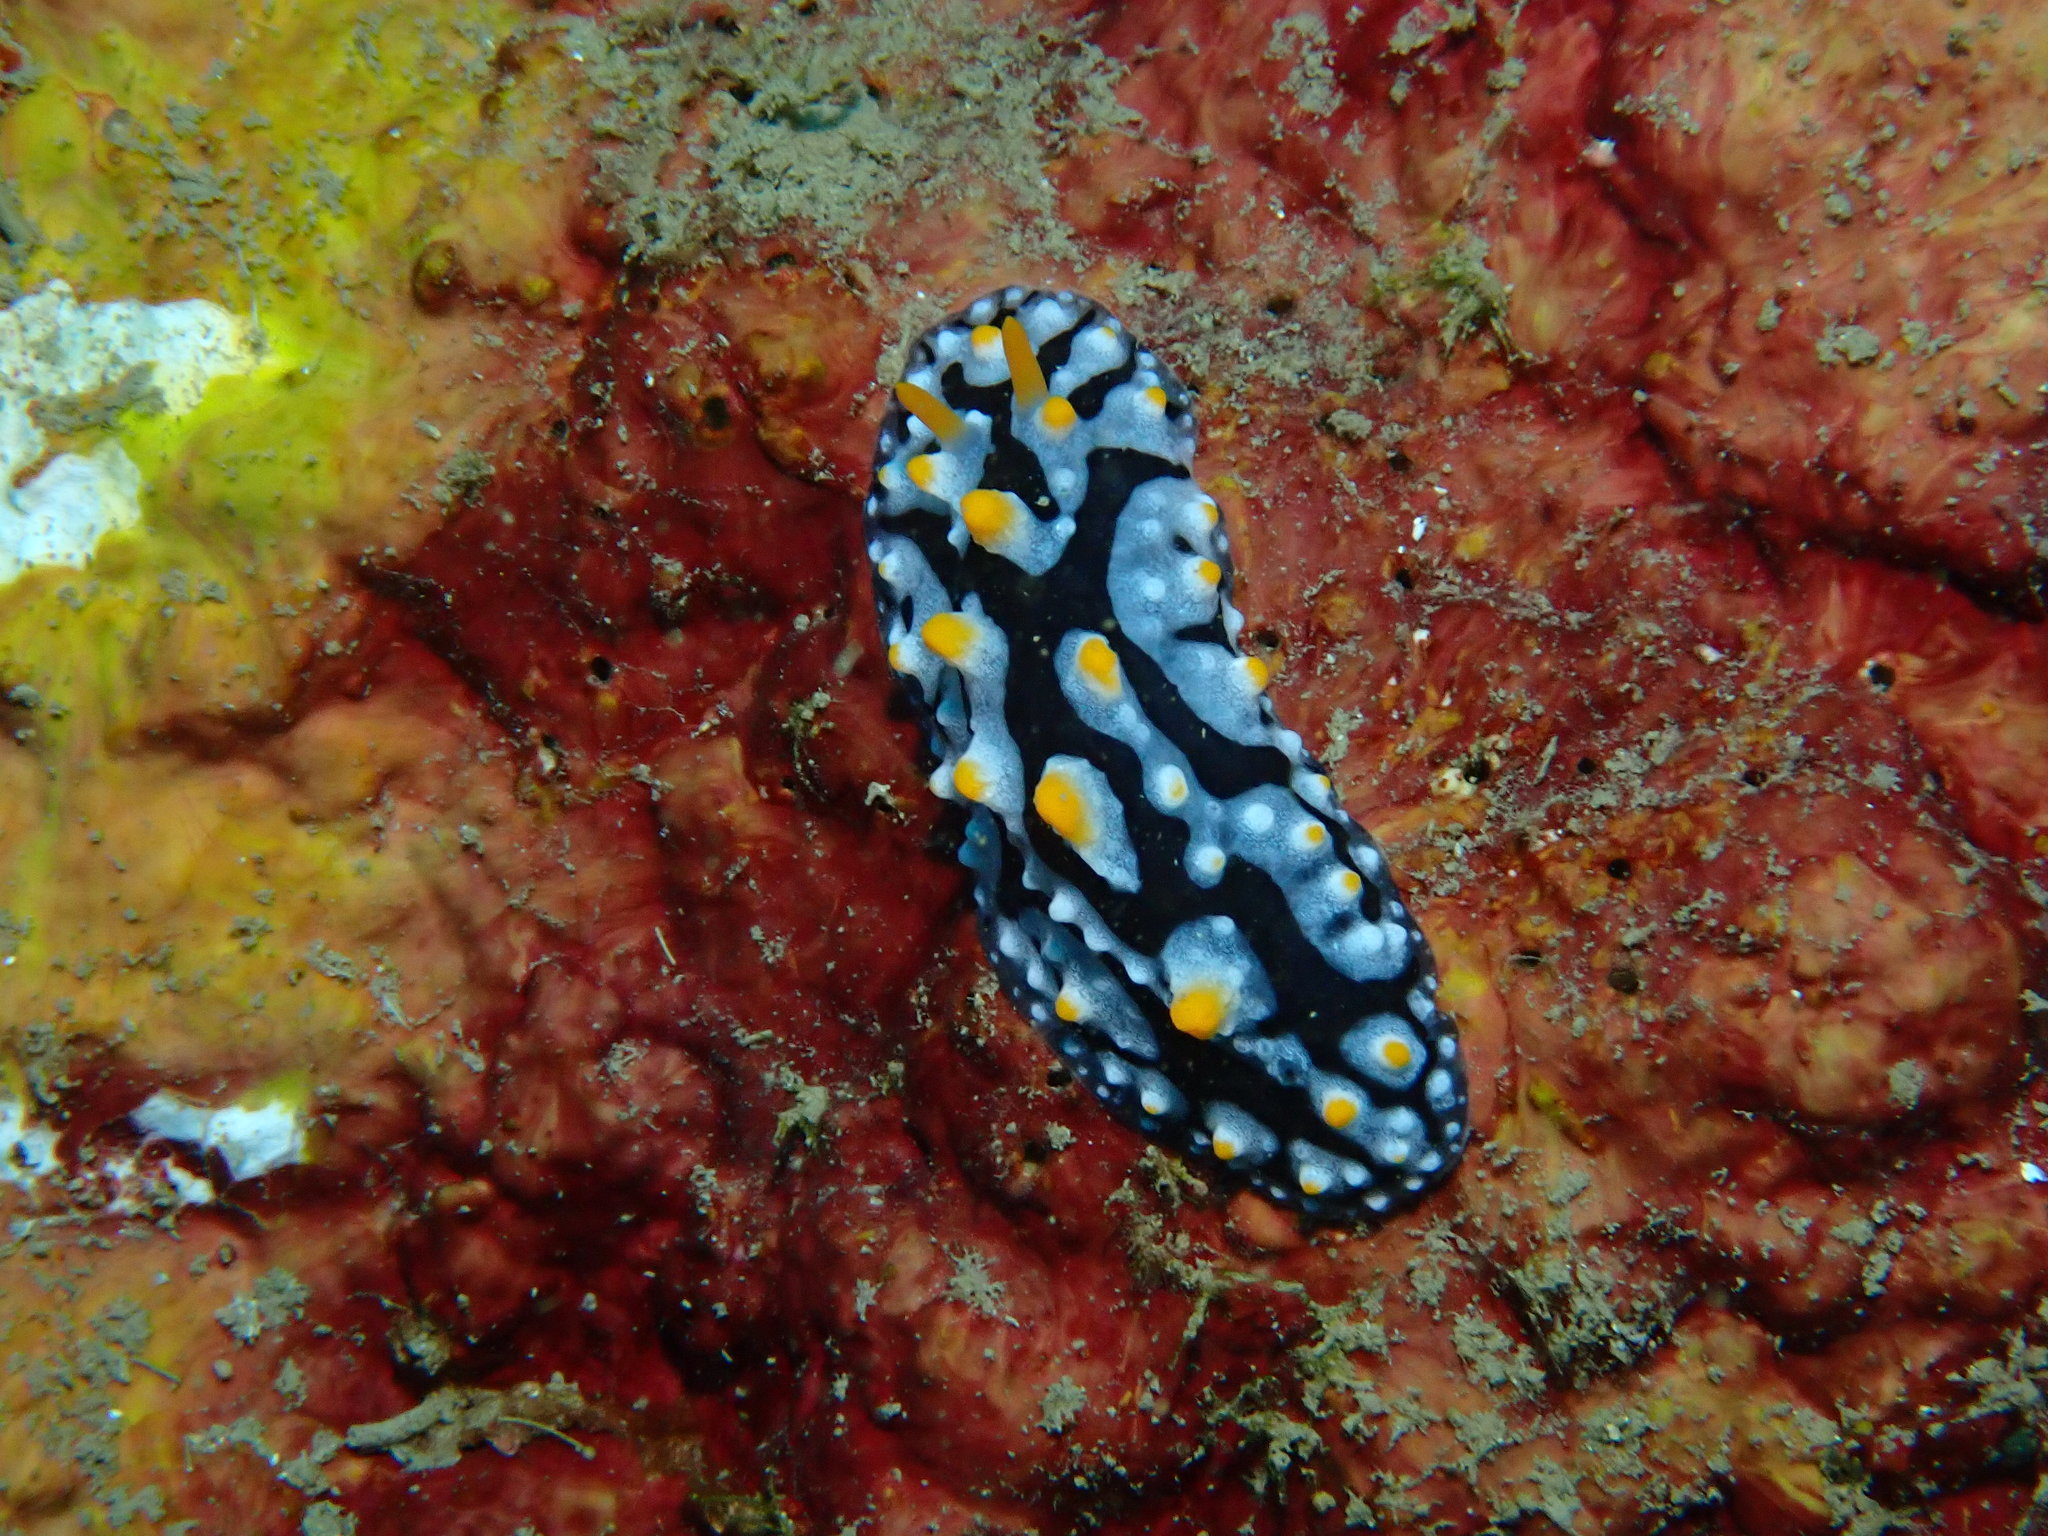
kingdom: Animalia
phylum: Mollusca
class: Gastropoda
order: Nudibranchia
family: Phyllidiidae
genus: Phyllidia
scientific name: Phyllidia varicosa
